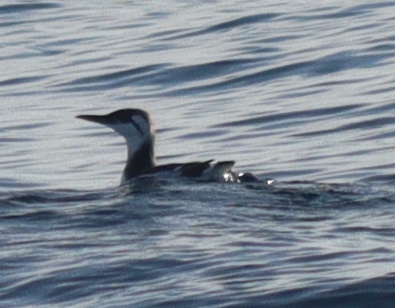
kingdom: Animalia
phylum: Chordata
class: Aves
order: Charadriiformes
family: Alcidae
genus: Uria
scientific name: Uria aalge
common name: Common murre
